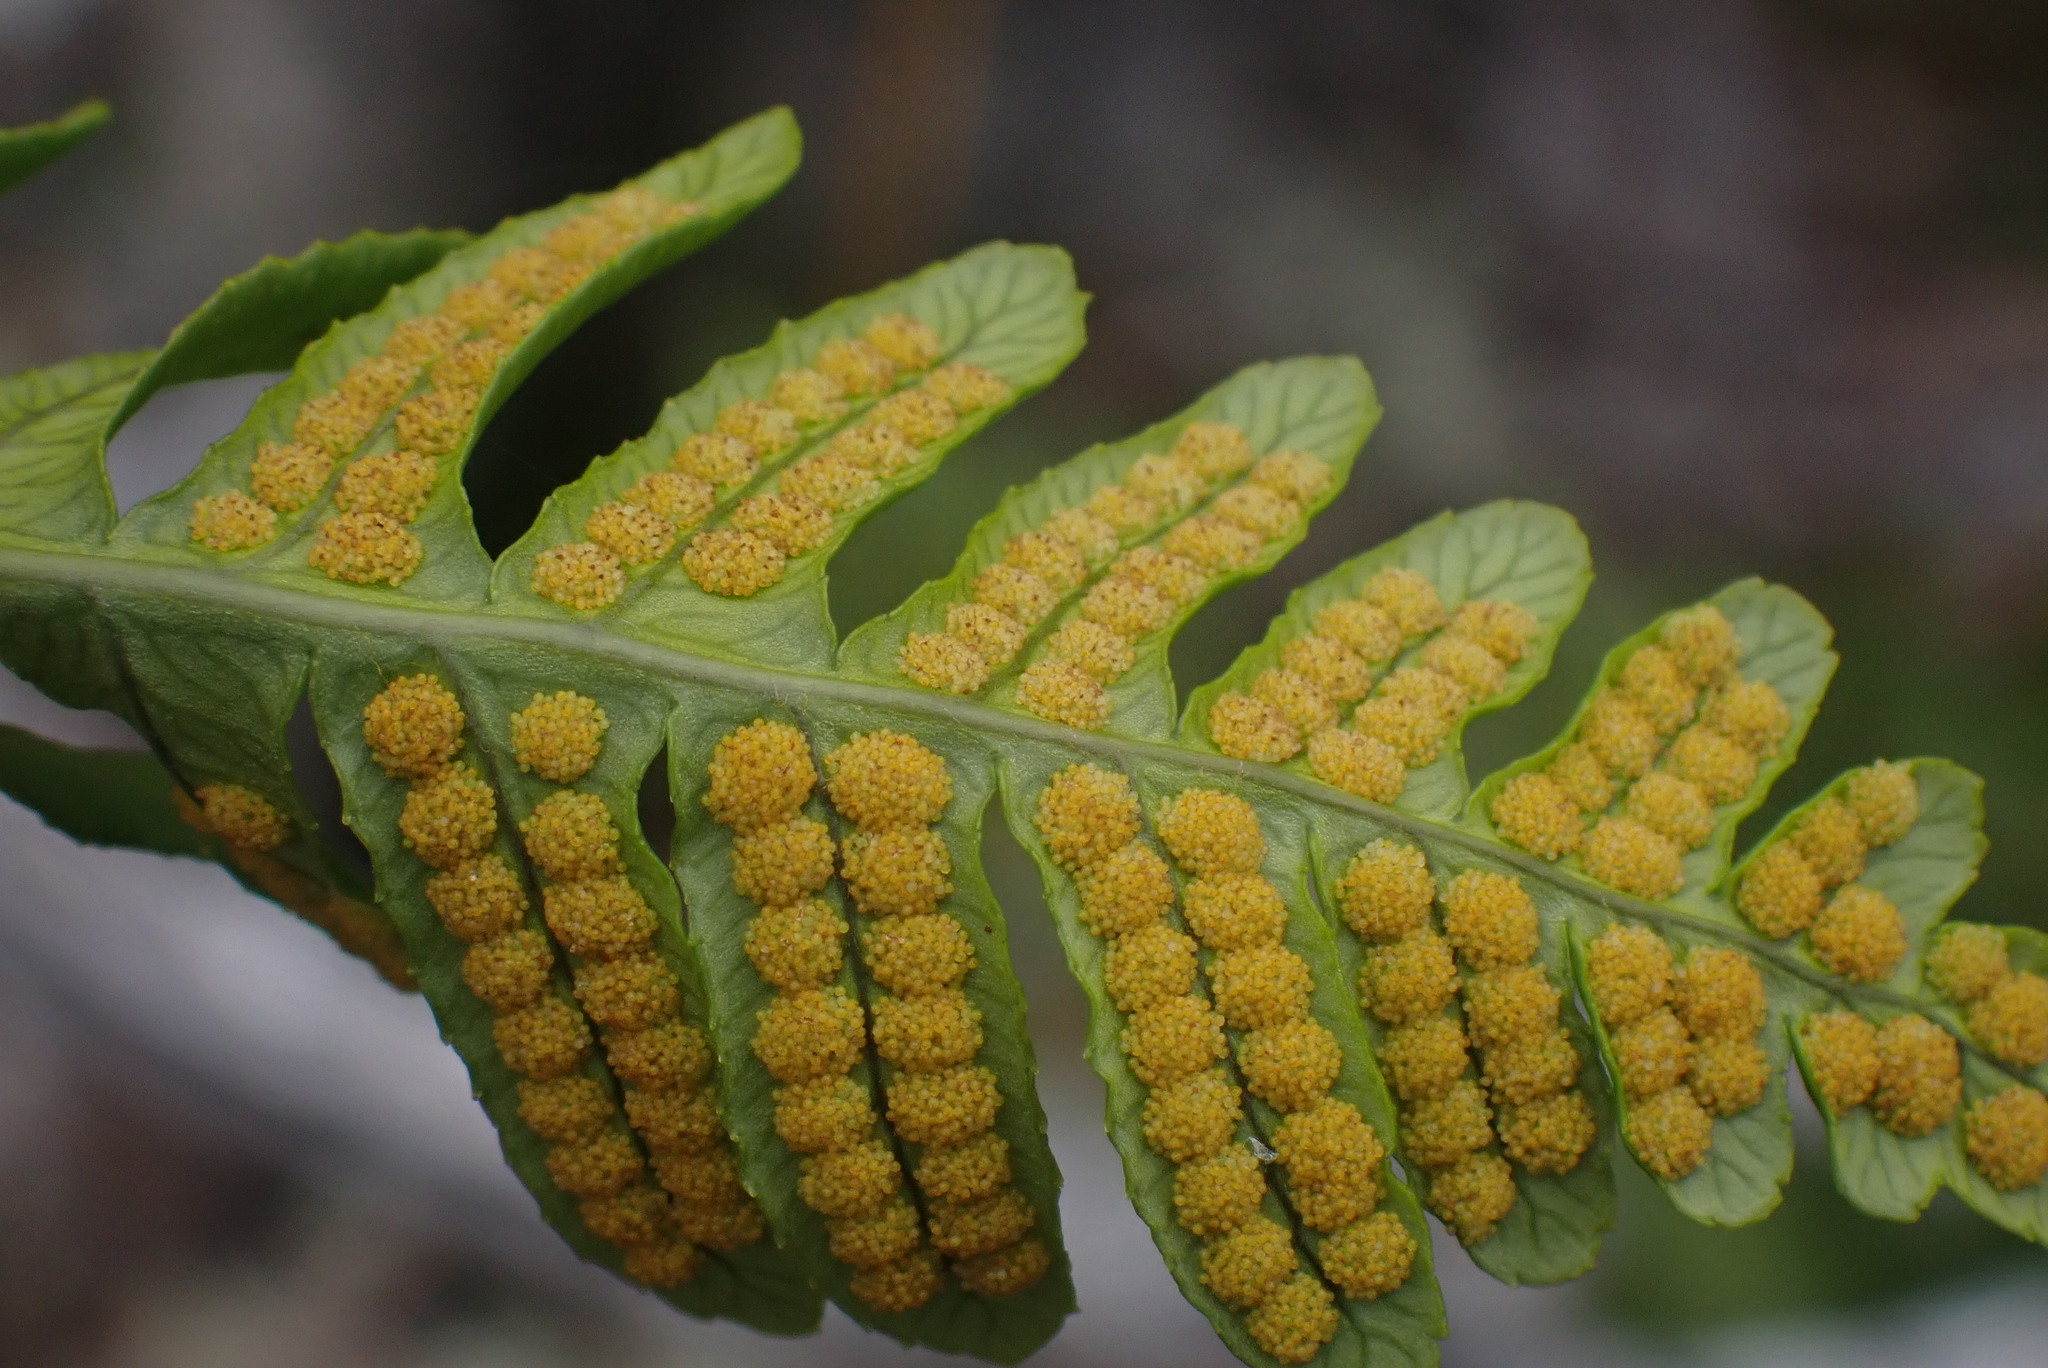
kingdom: Plantae
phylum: Tracheophyta
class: Polypodiopsida
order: Polypodiales
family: Polypodiaceae
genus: Polypodium
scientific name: Polypodium glycyrrhiza
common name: Licorice fern
